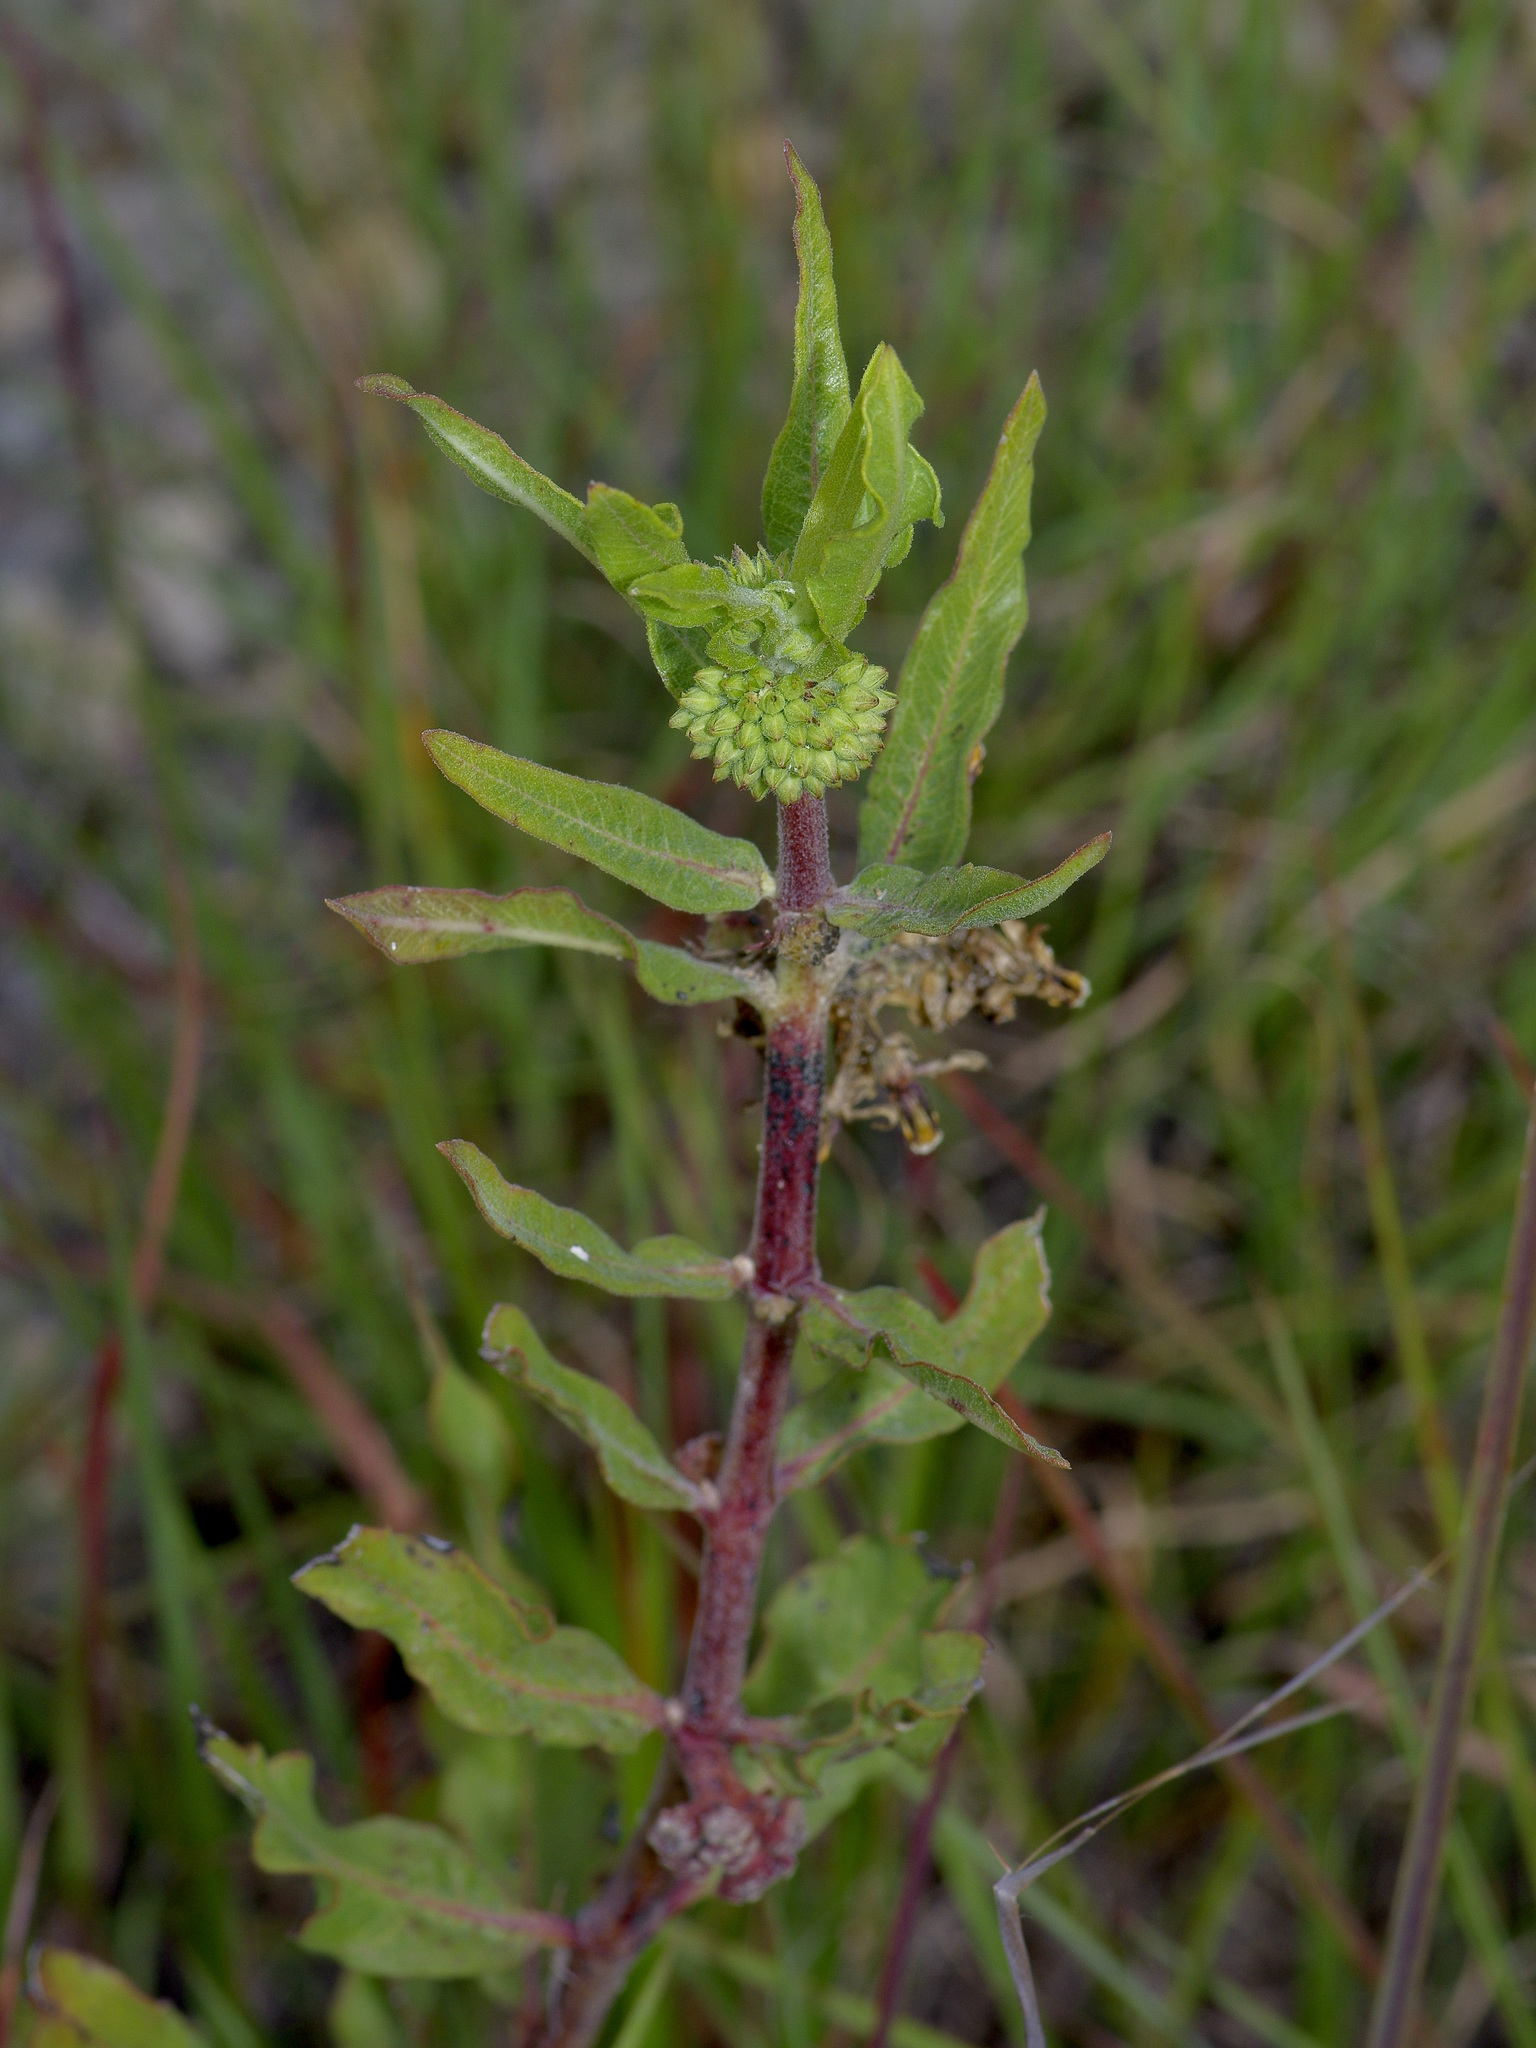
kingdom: Plantae
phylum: Tracheophyta
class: Magnoliopsida
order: Gentianales
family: Apocynaceae
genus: Asclepias
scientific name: Asclepias viridiflora
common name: Green comet milkweed
